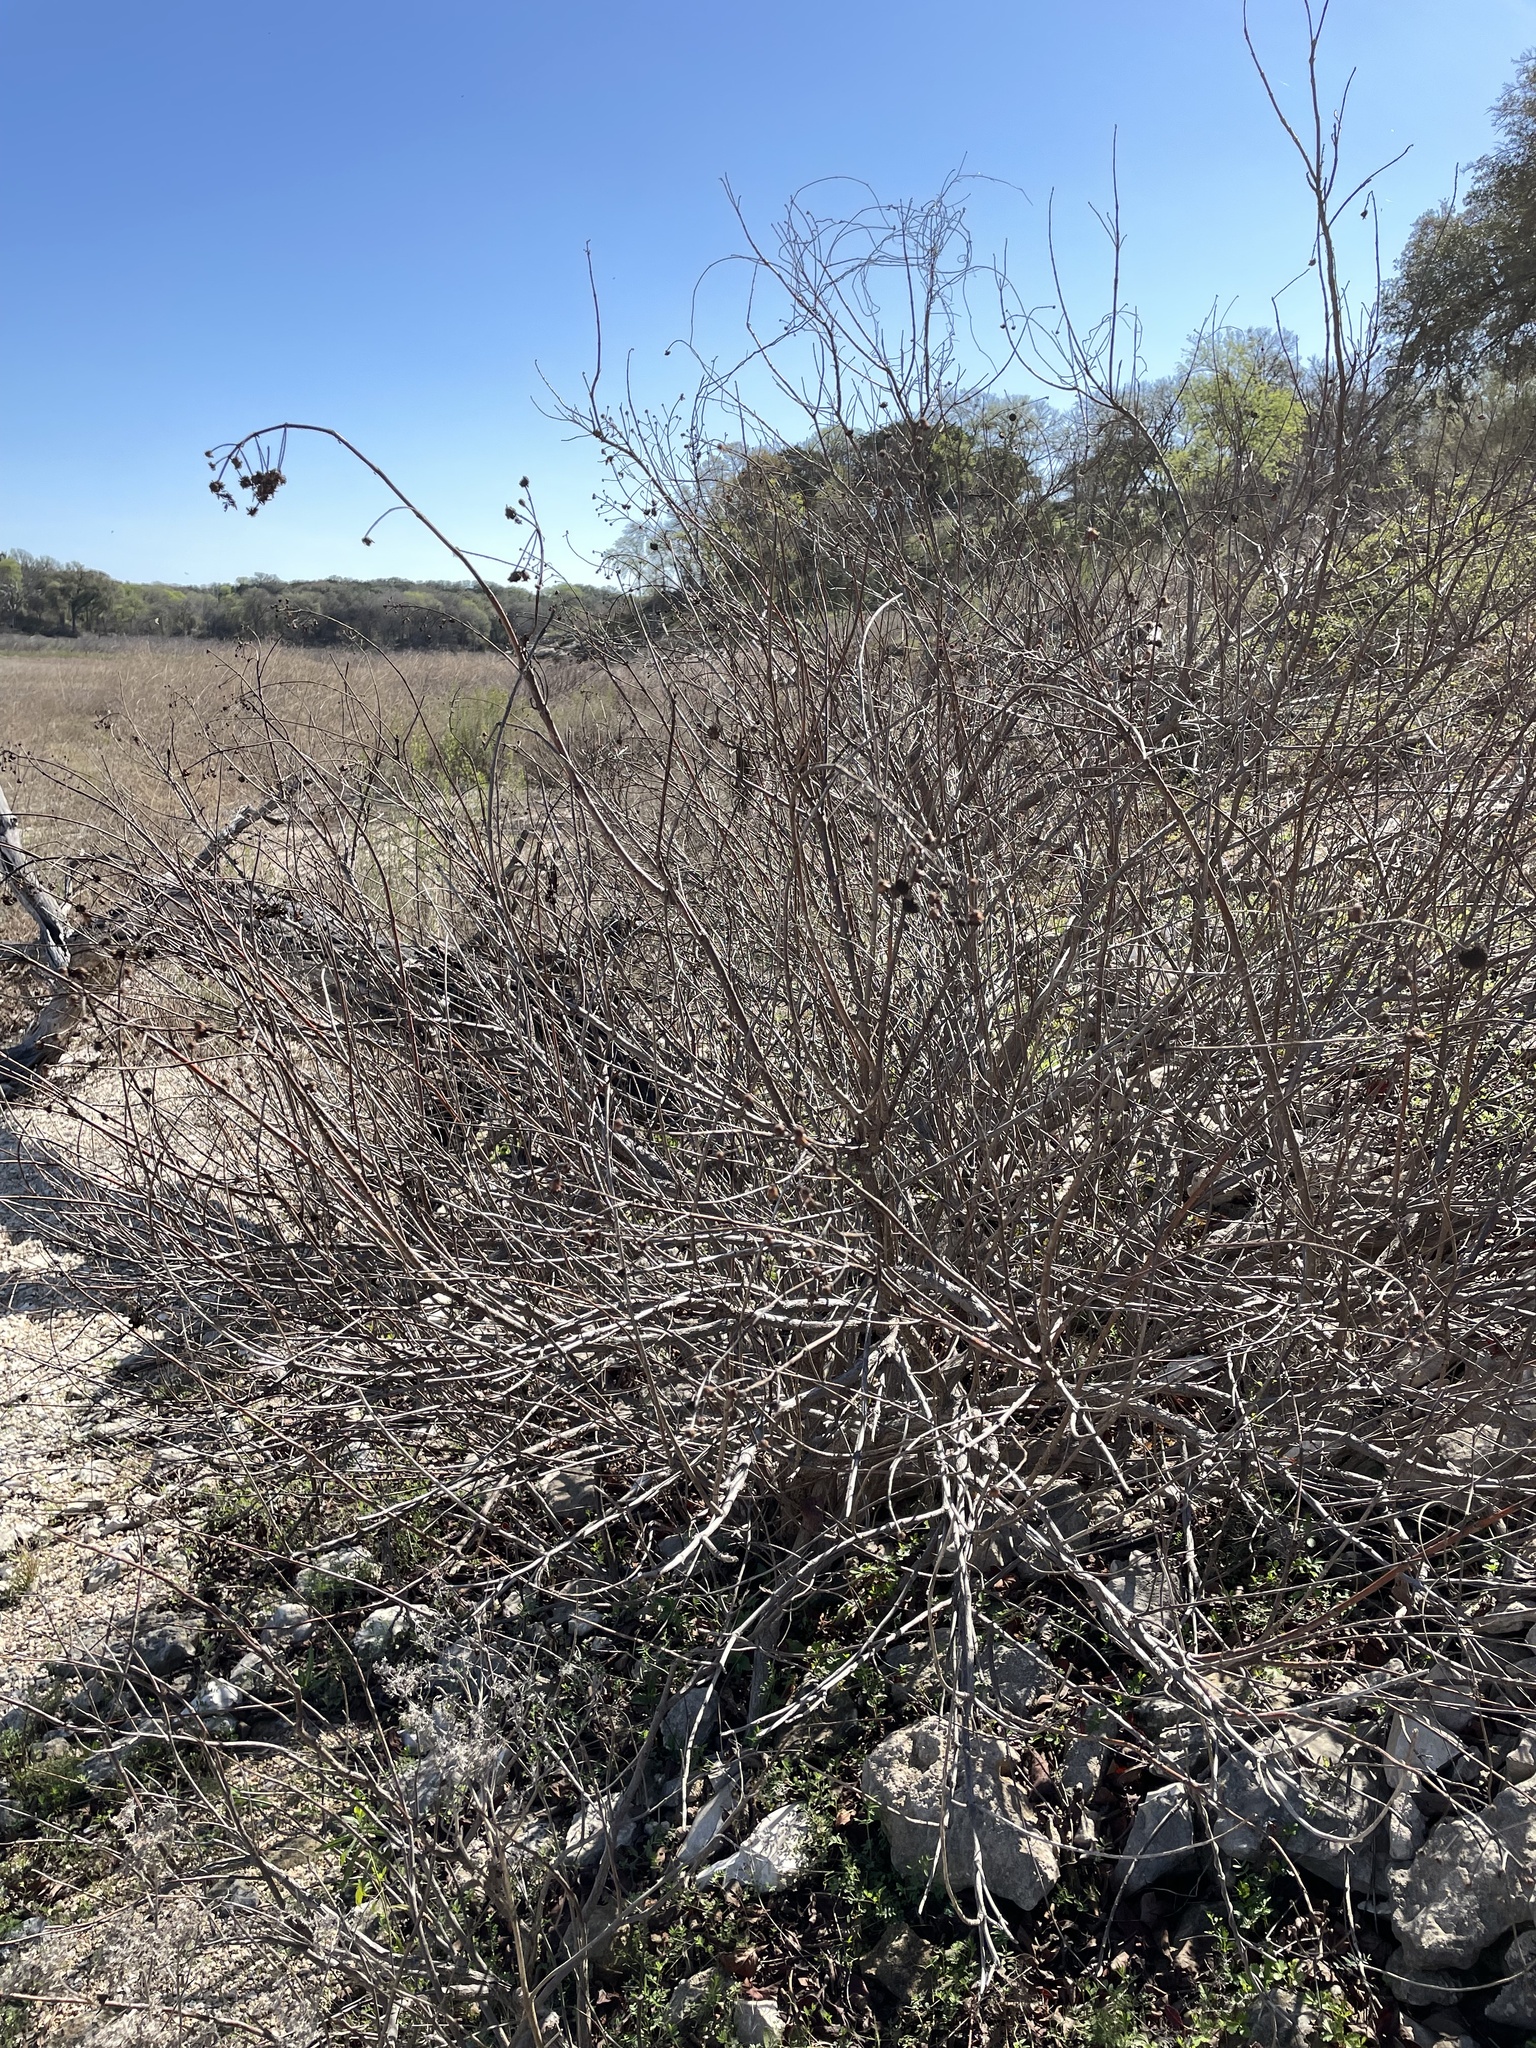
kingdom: Plantae
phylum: Tracheophyta
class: Magnoliopsida
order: Gentianales
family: Rubiaceae
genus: Cephalanthus
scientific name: Cephalanthus occidentalis
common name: Button-willow
